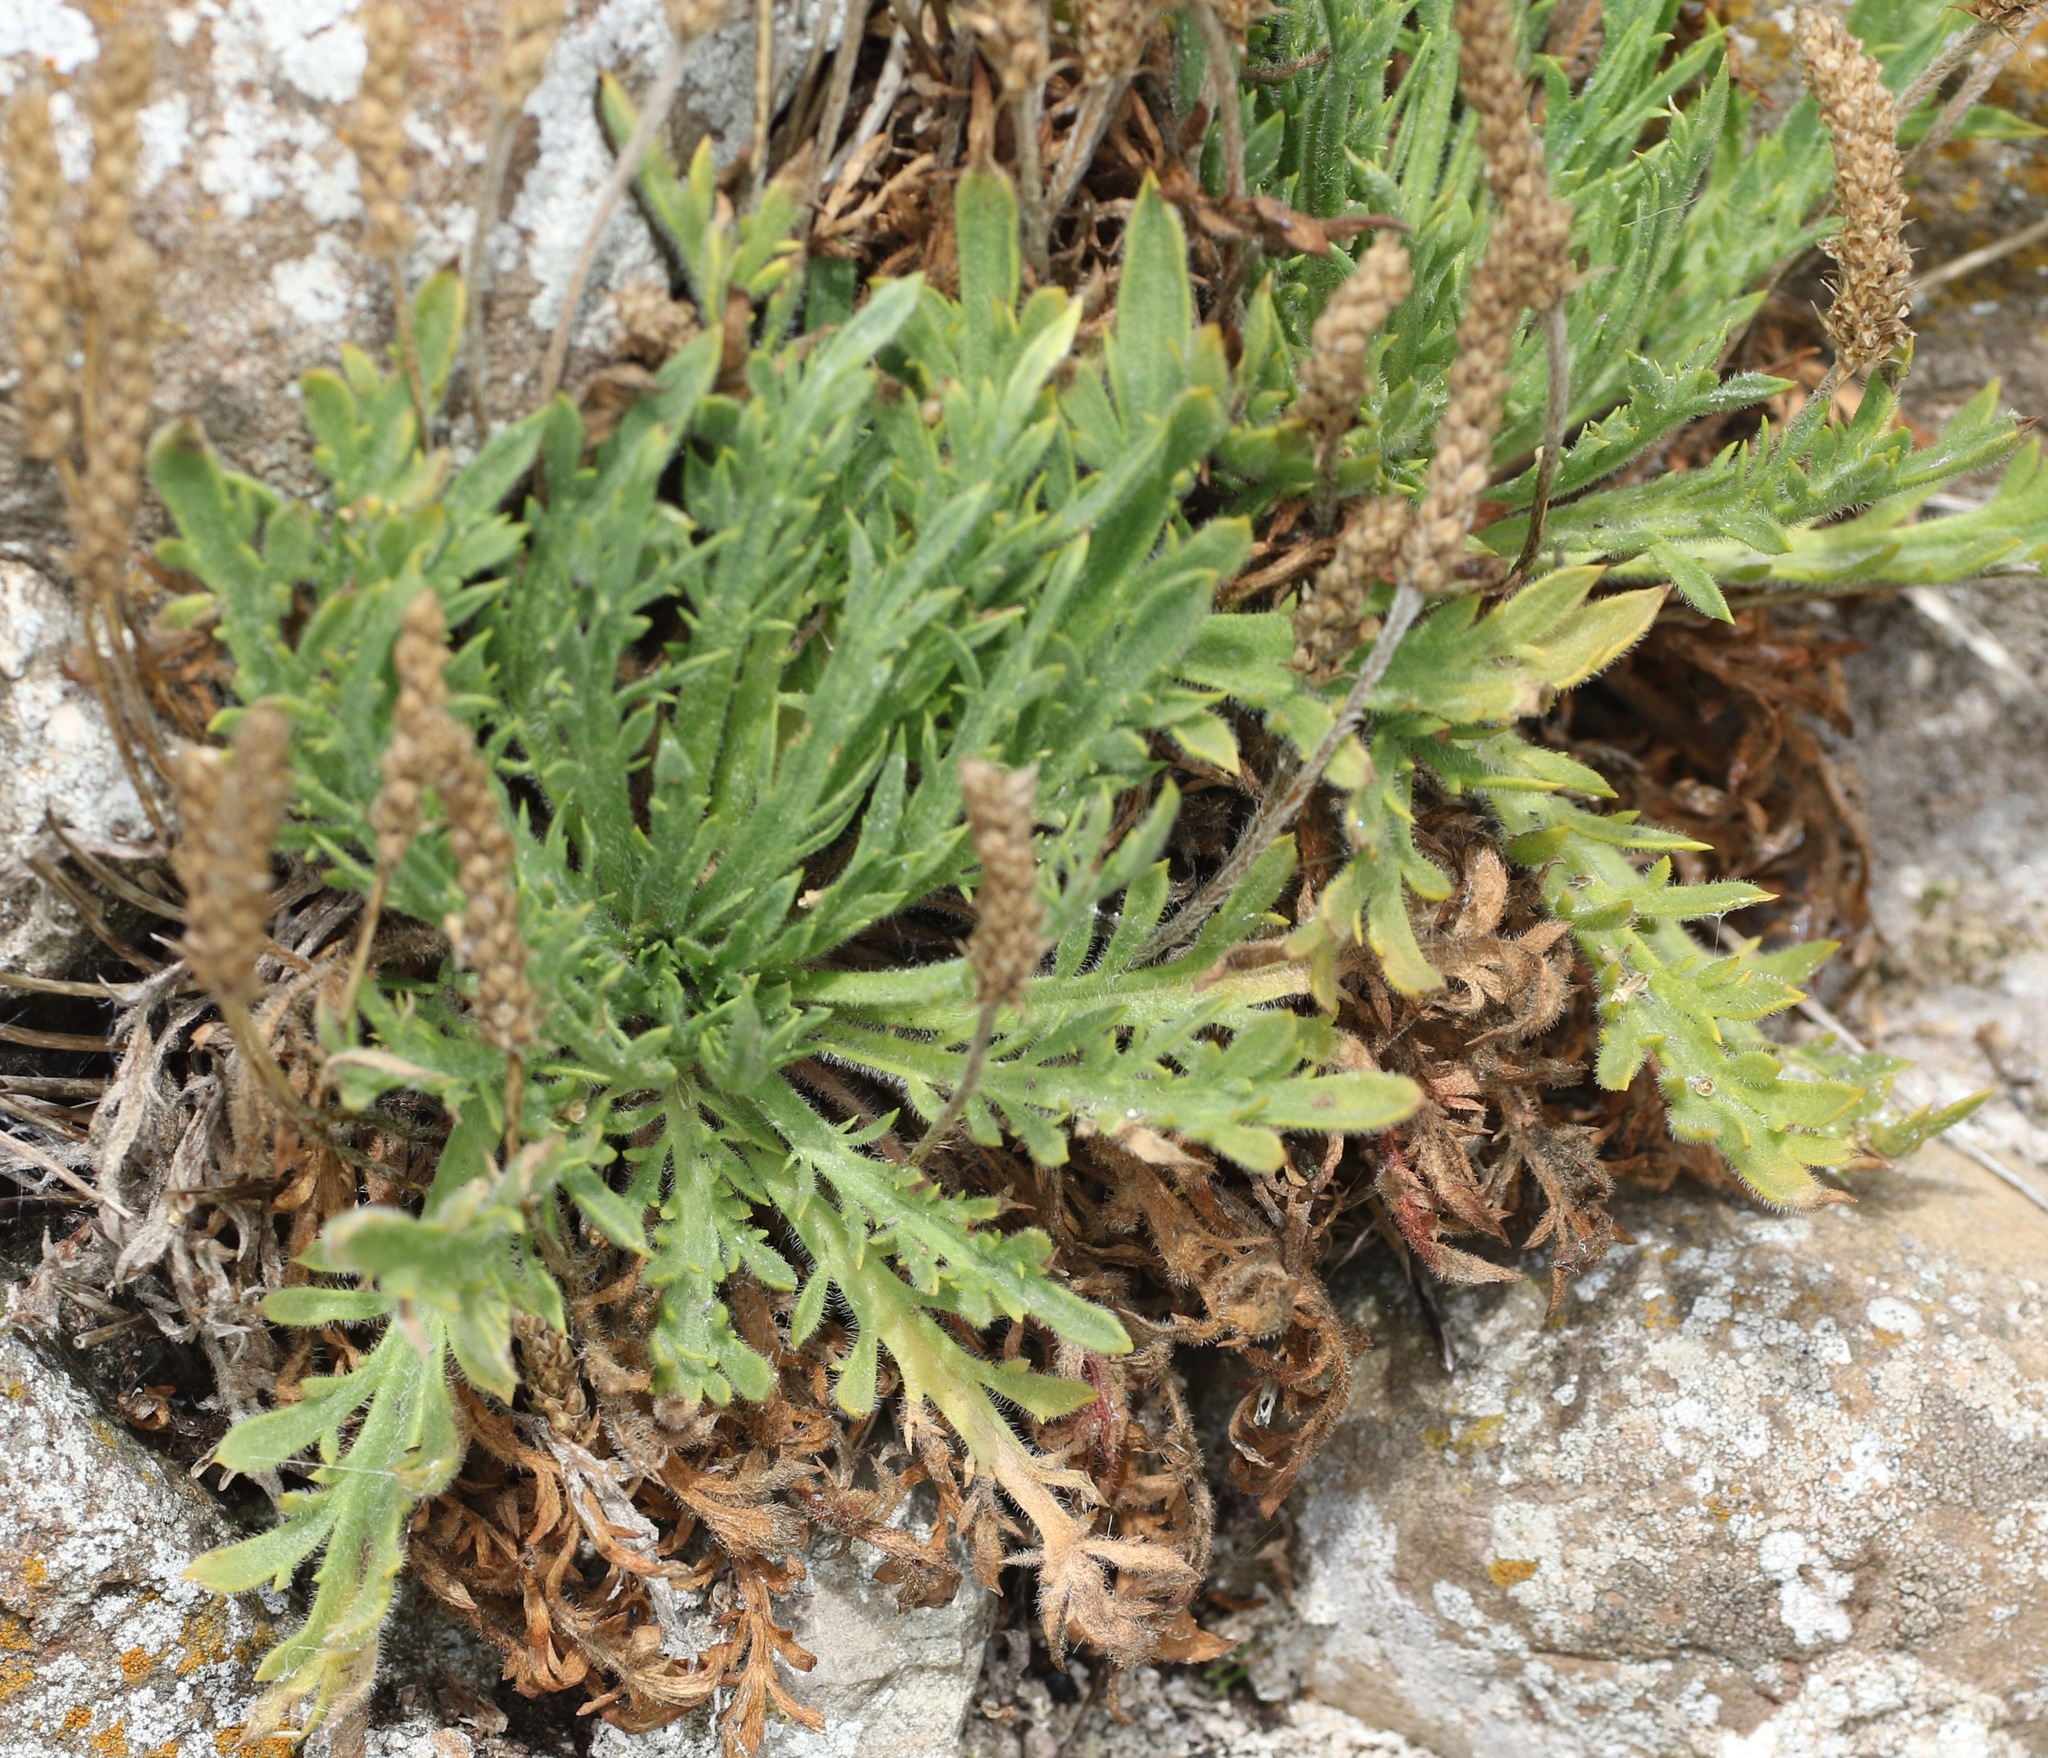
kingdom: Plantae
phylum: Tracheophyta
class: Magnoliopsida
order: Lamiales
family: Plantaginaceae
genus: Plantago
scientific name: Plantago coronopus
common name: Buck's-horn plantain
